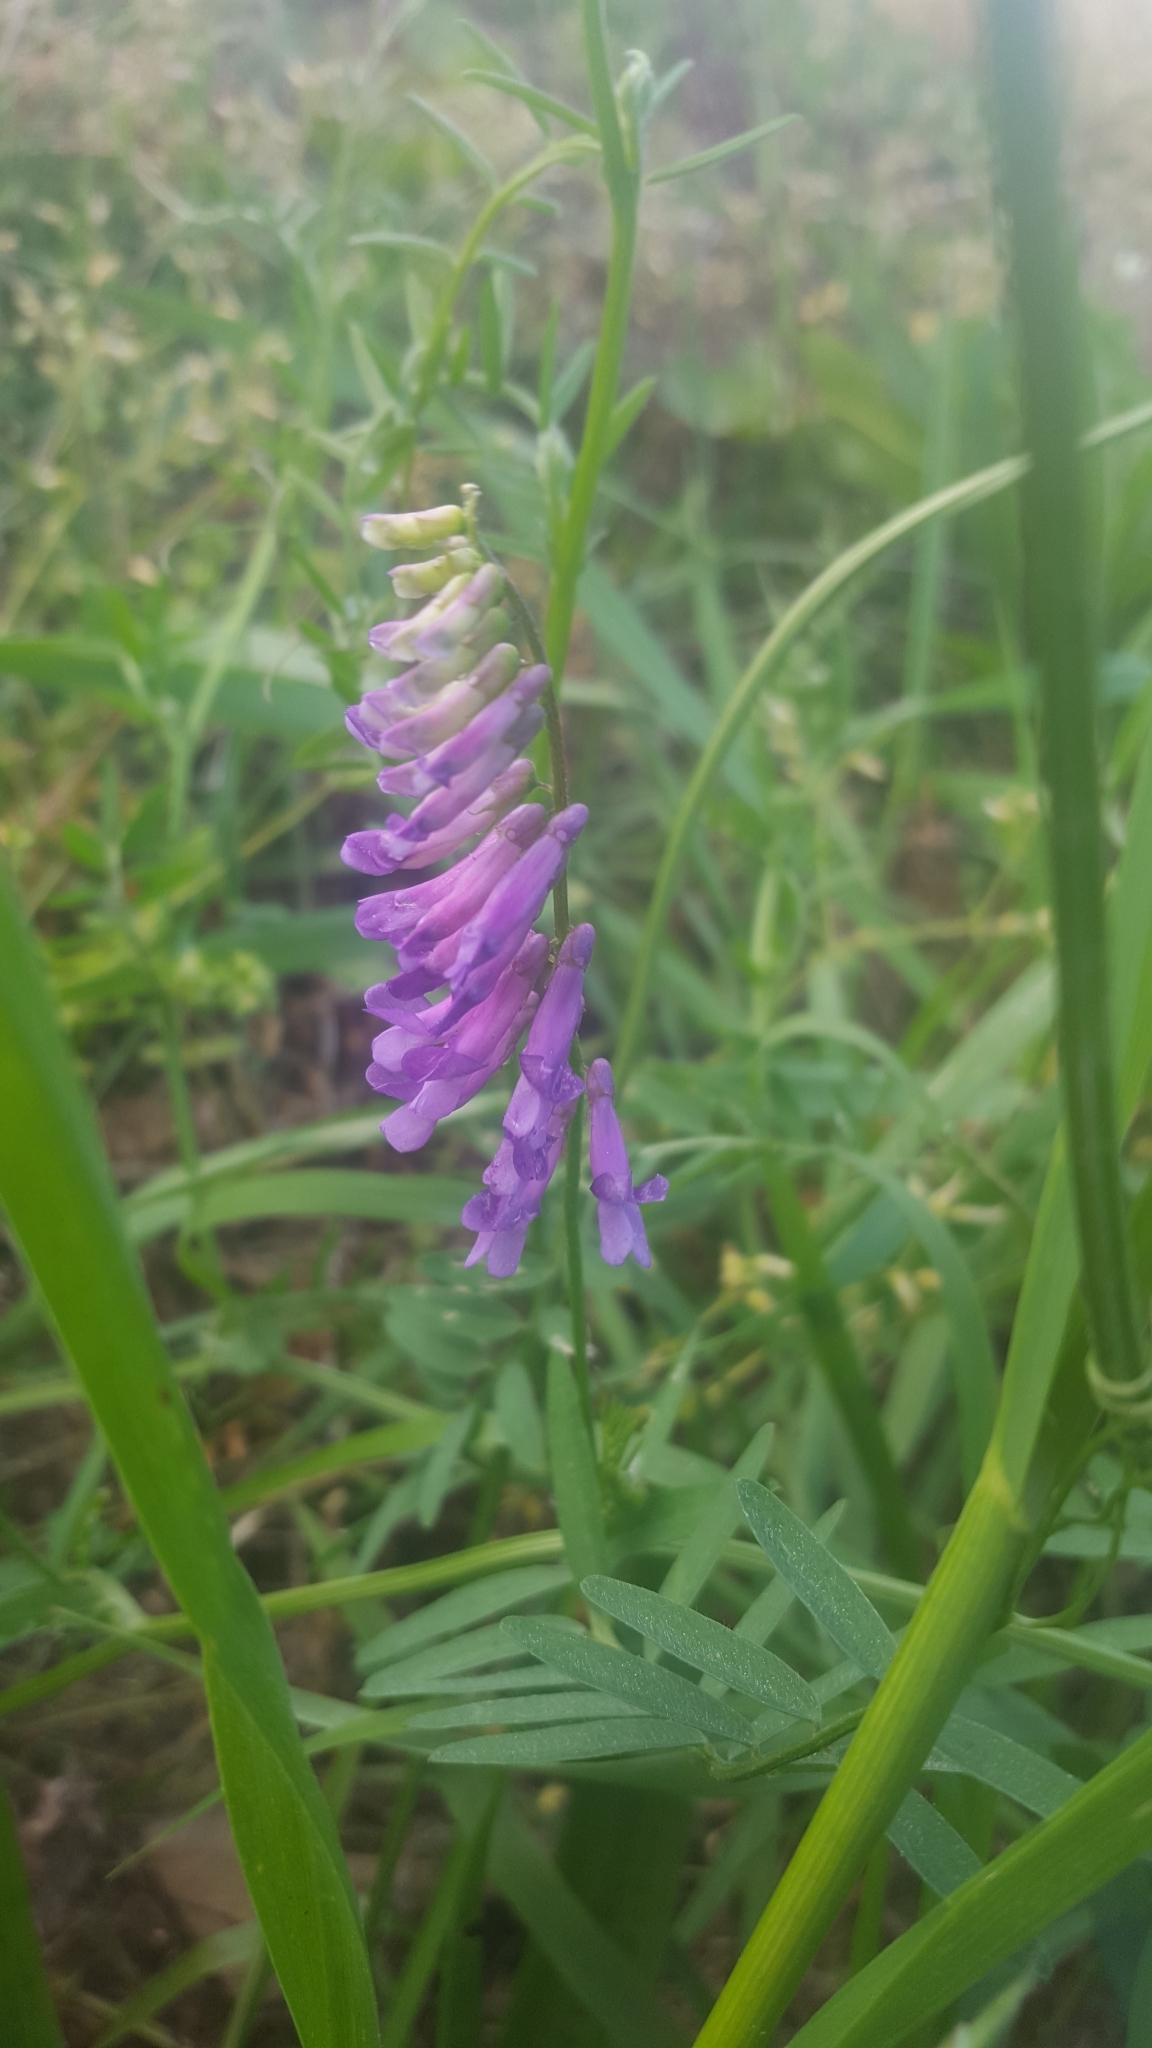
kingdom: Plantae
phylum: Tracheophyta
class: Magnoliopsida
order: Fabales
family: Fabaceae
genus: Vicia
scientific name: Vicia villosa
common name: Fodder vetch
